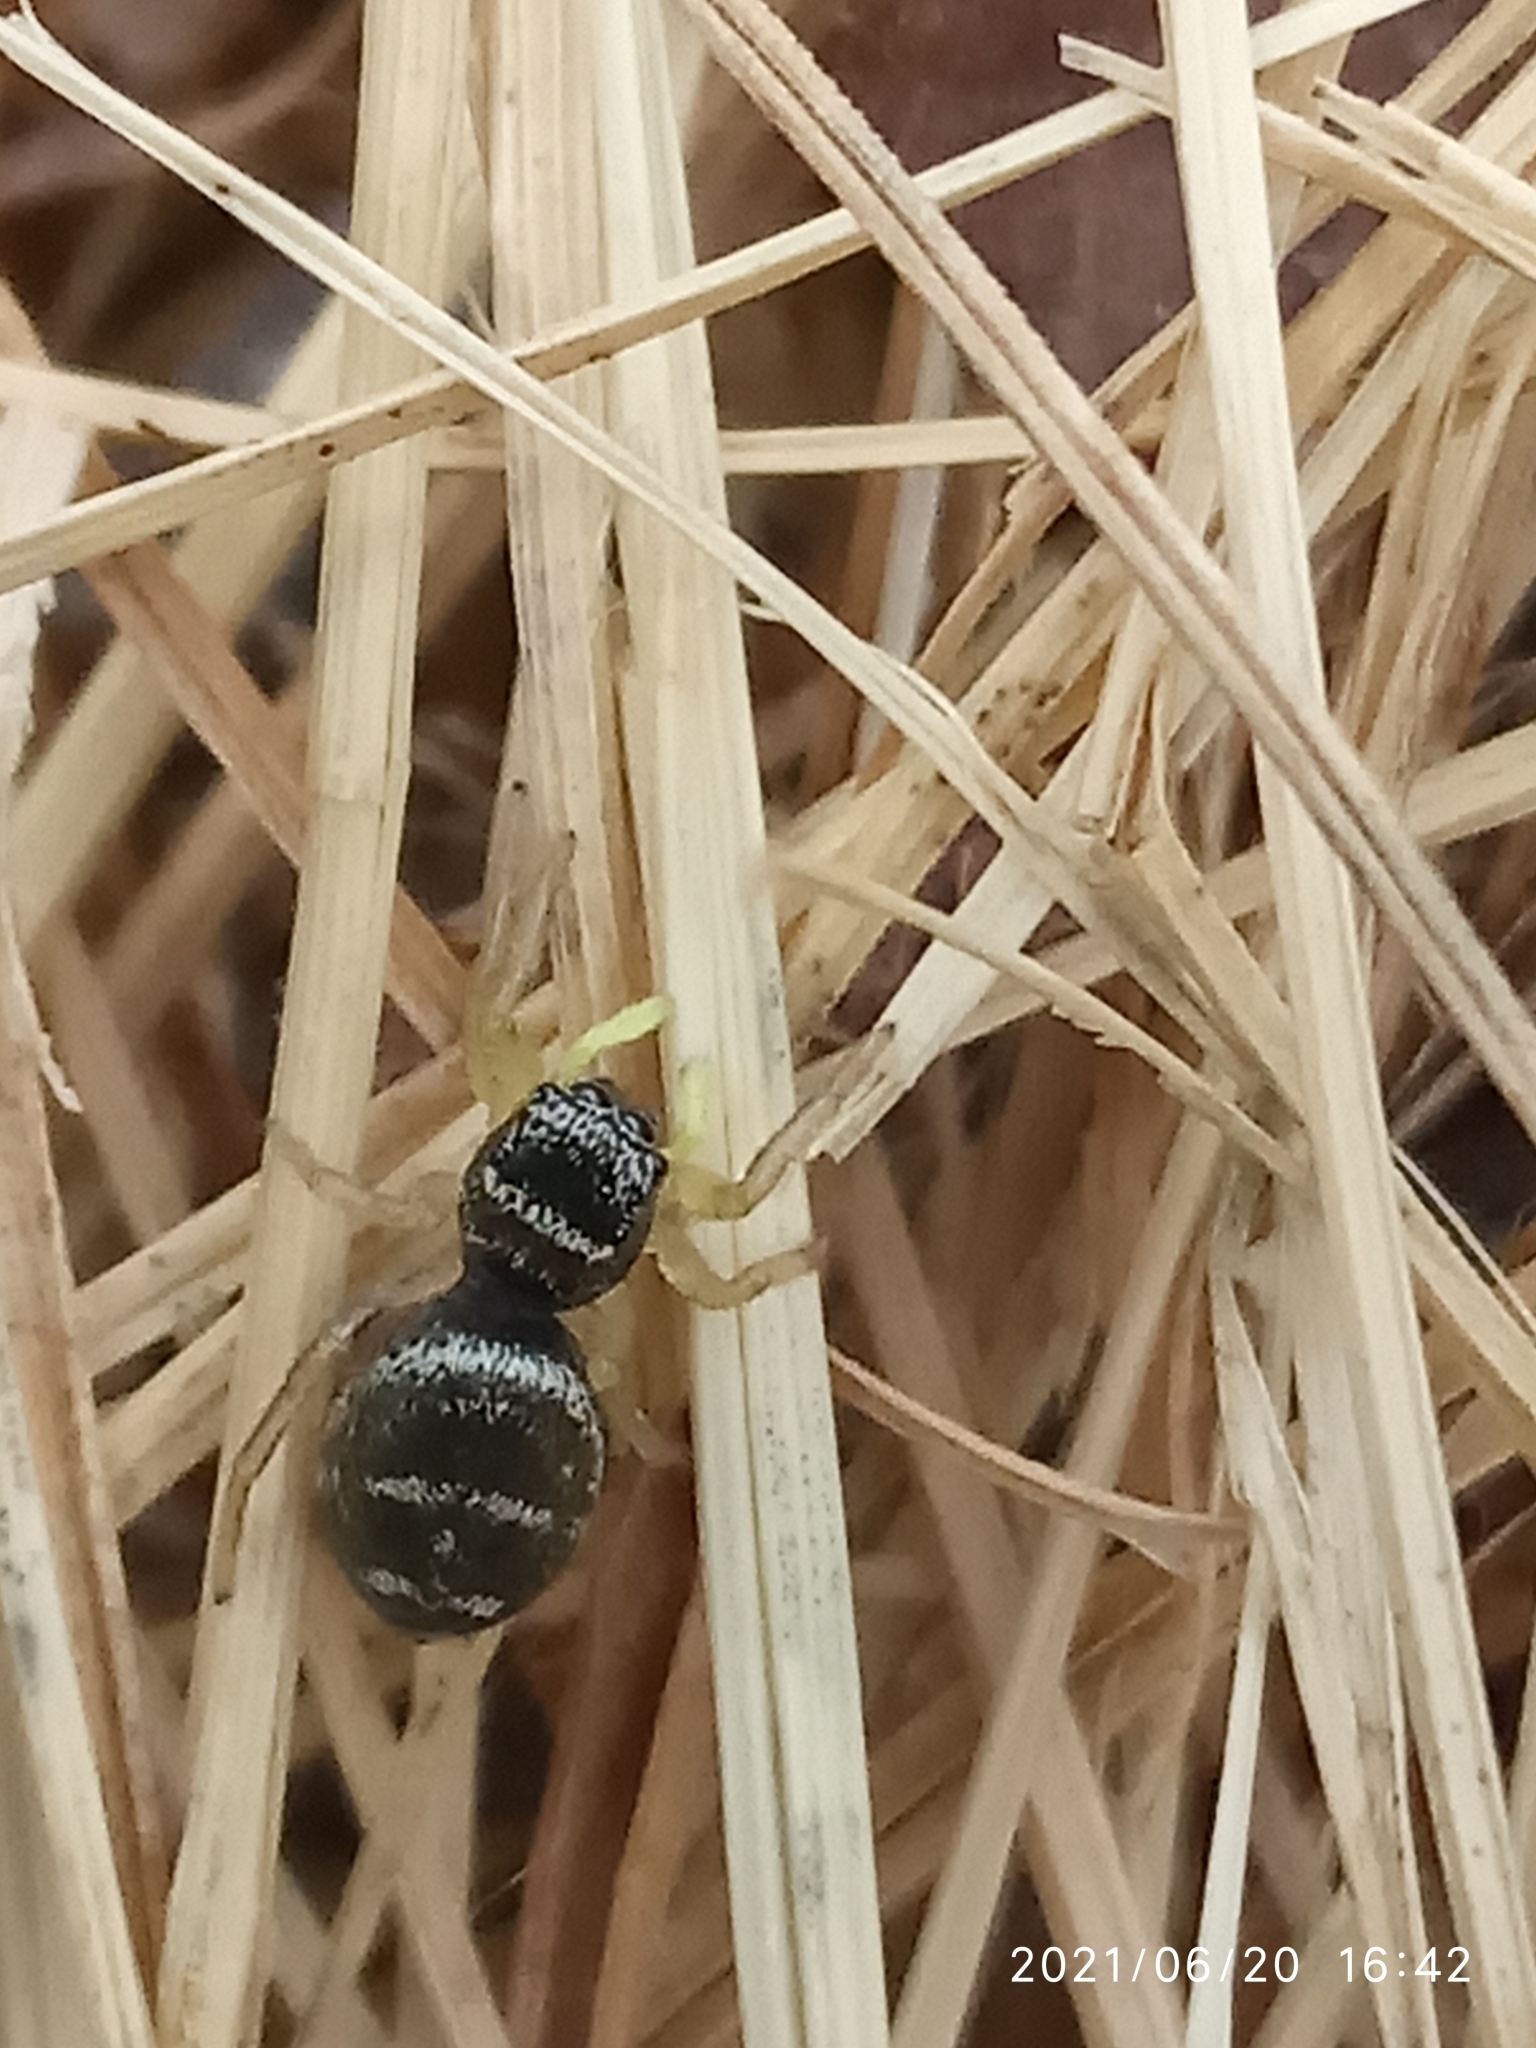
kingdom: Animalia
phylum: Arthropoda
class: Arachnida
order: Araneae
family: Salticidae
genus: Heliophanus
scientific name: Heliophanus cupreus
